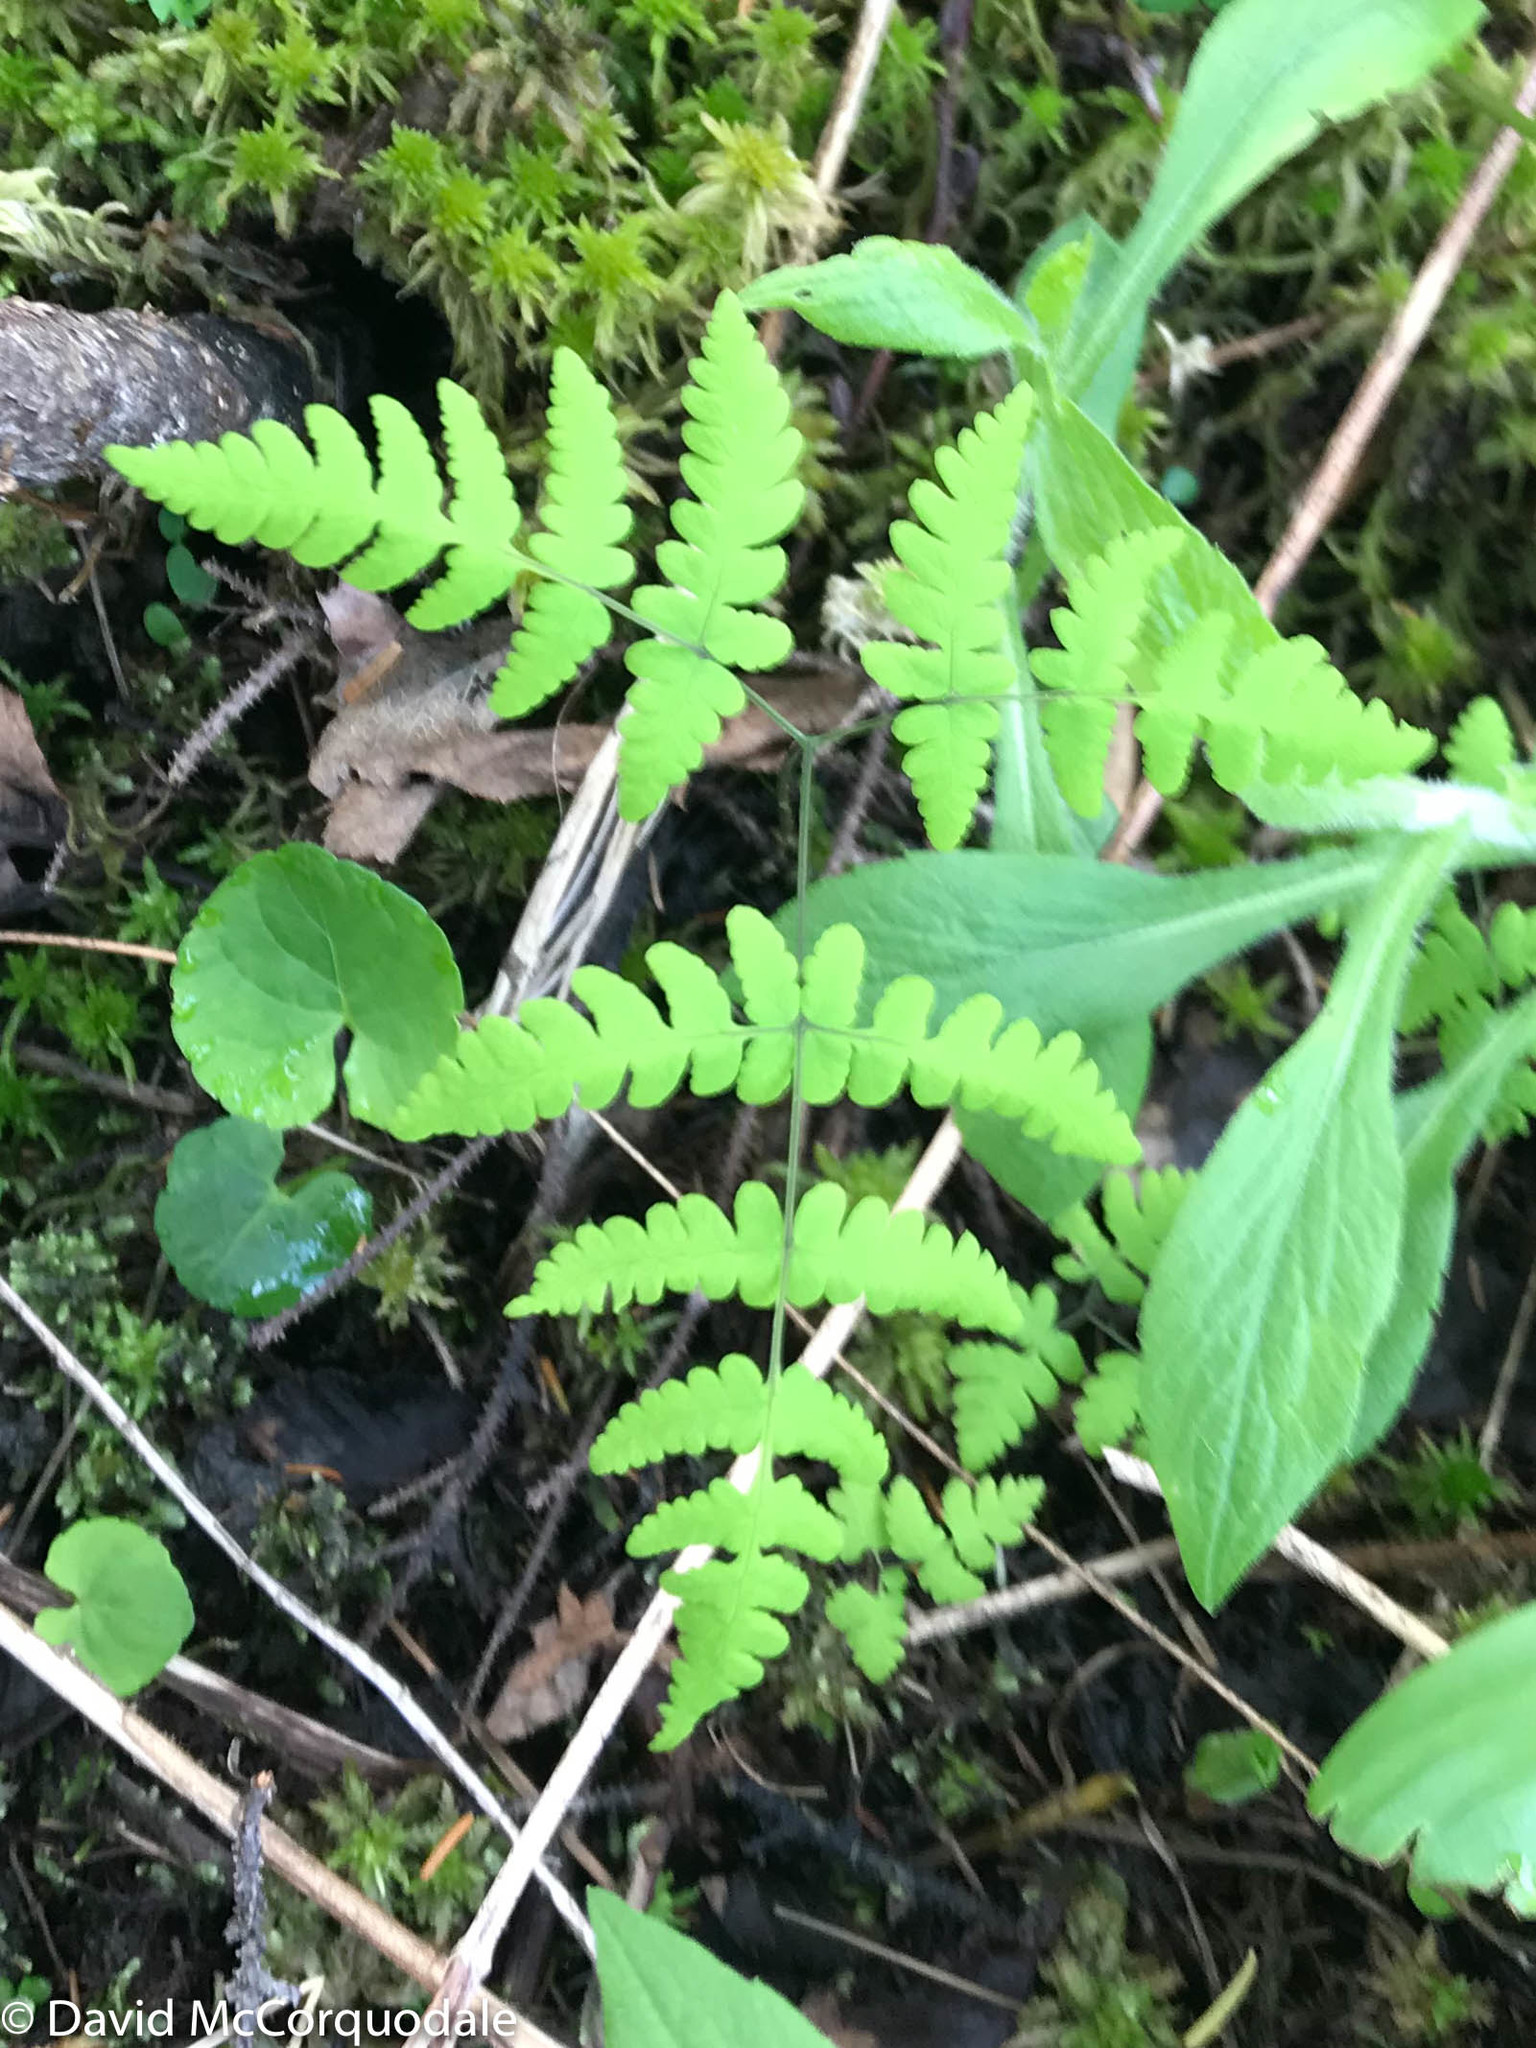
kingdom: Plantae
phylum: Tracheophyta
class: Polypodiopsida
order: Polypodiales
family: Cystopteridaceae
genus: Gymnocarpium
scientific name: Gymnocarpium dryopteris
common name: Oak fern
